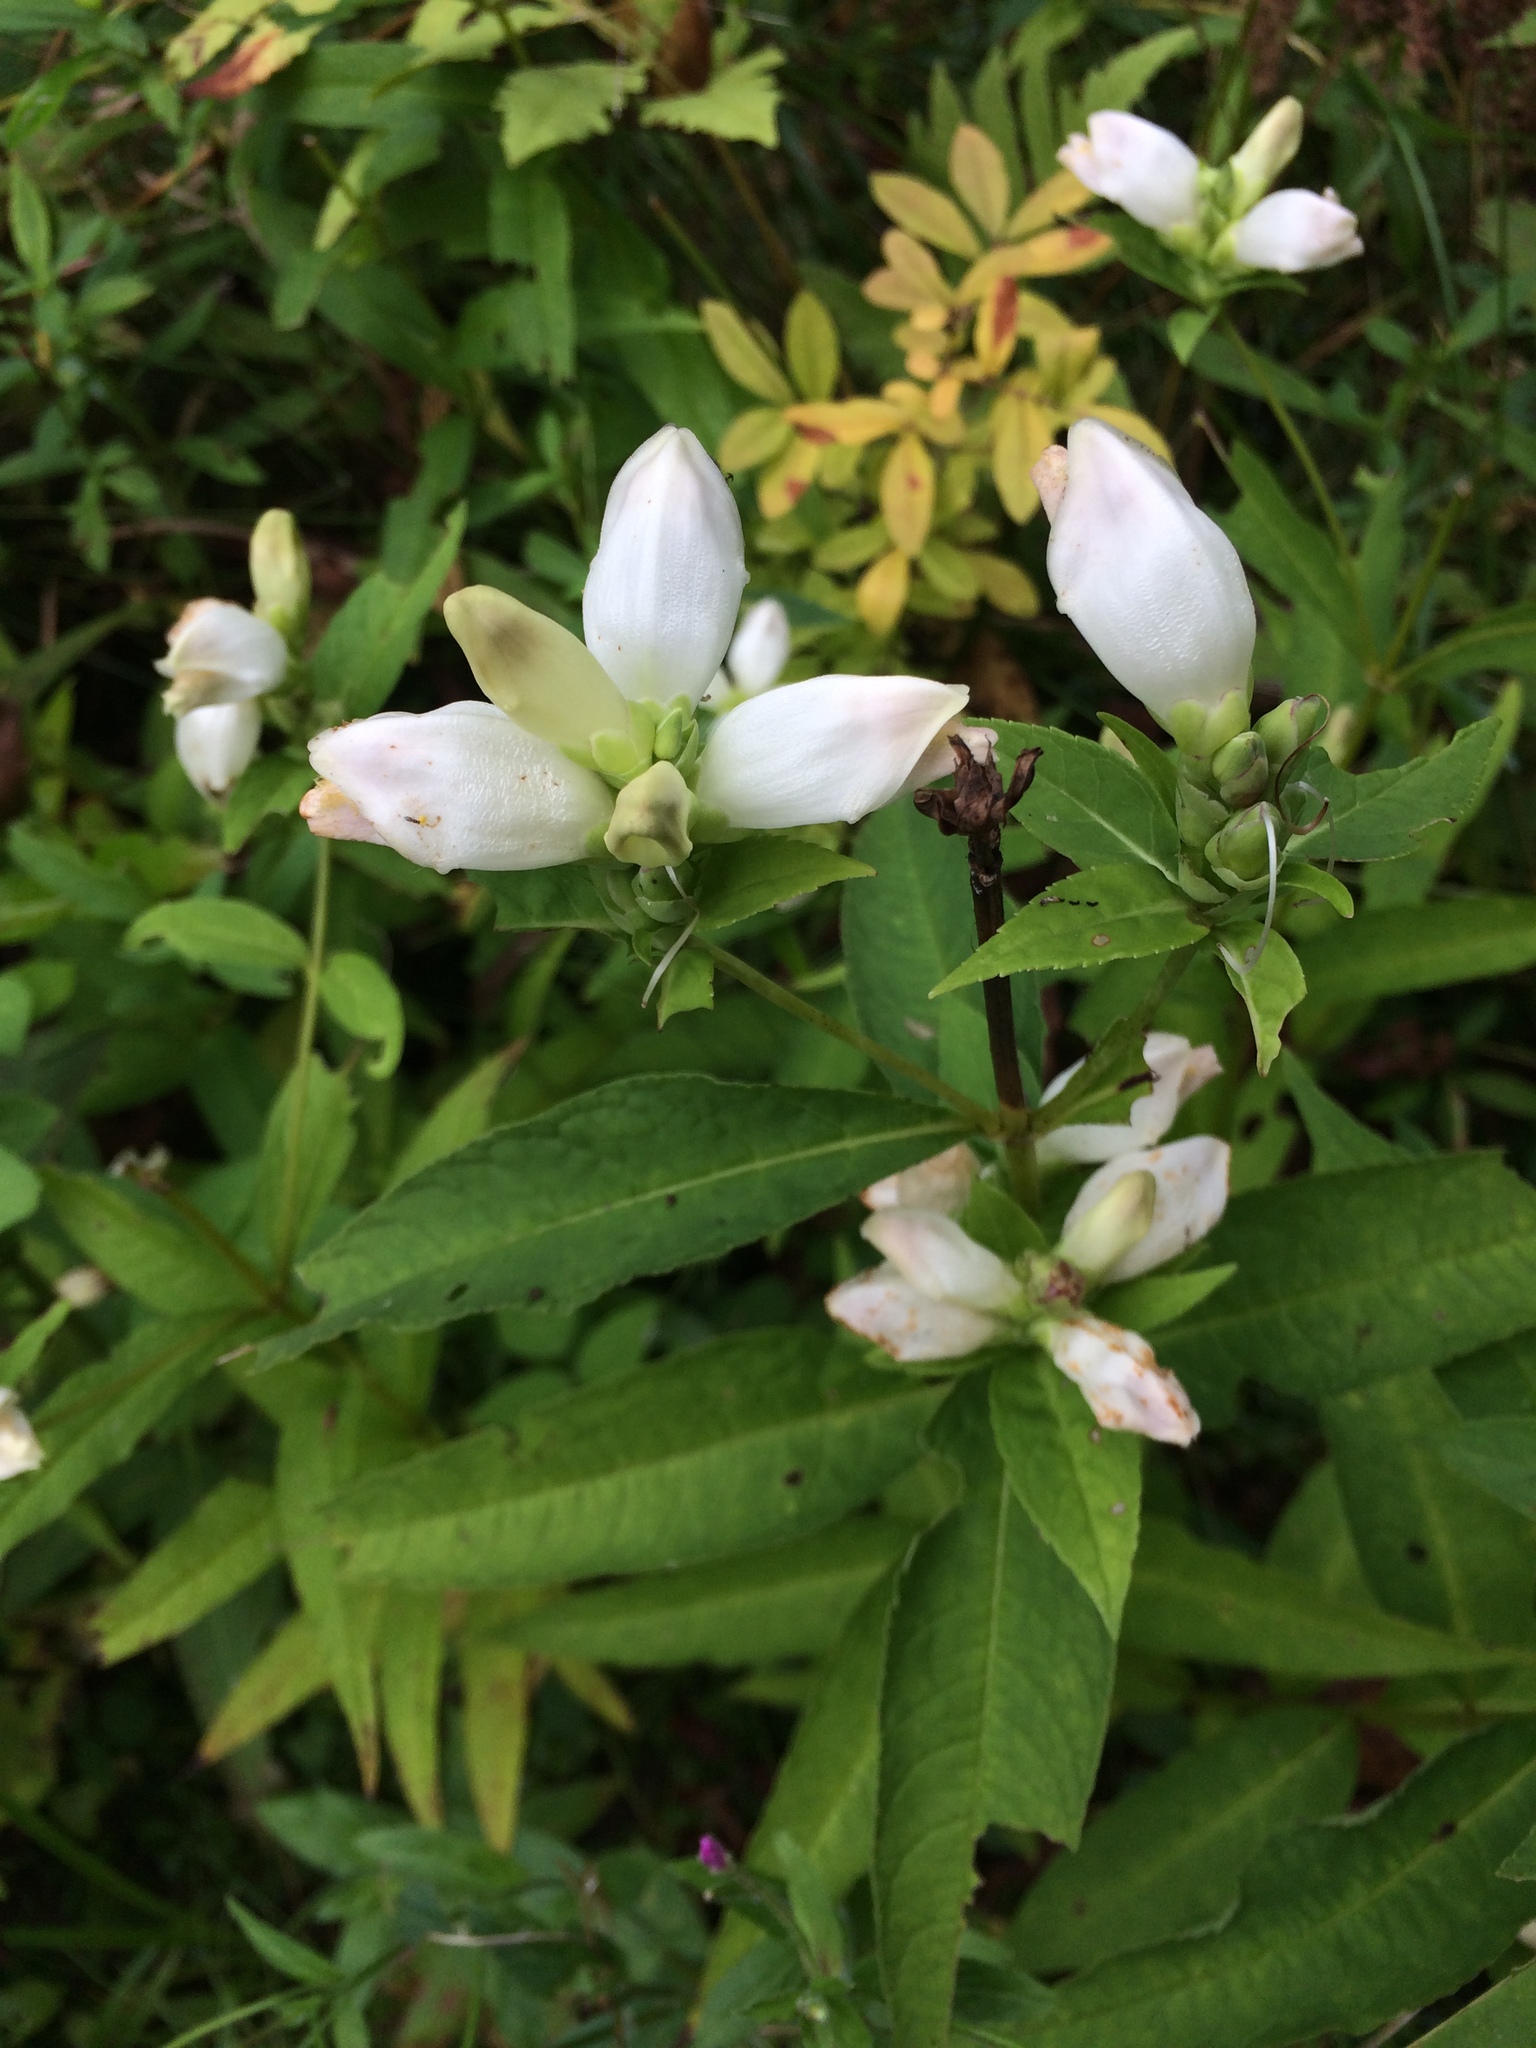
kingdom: Plantae
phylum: Tracheophyta
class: Magnoliopsida
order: Lamiales
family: Plantaginaceae
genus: Chelone
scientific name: Chelone glabra
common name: Snakehead
